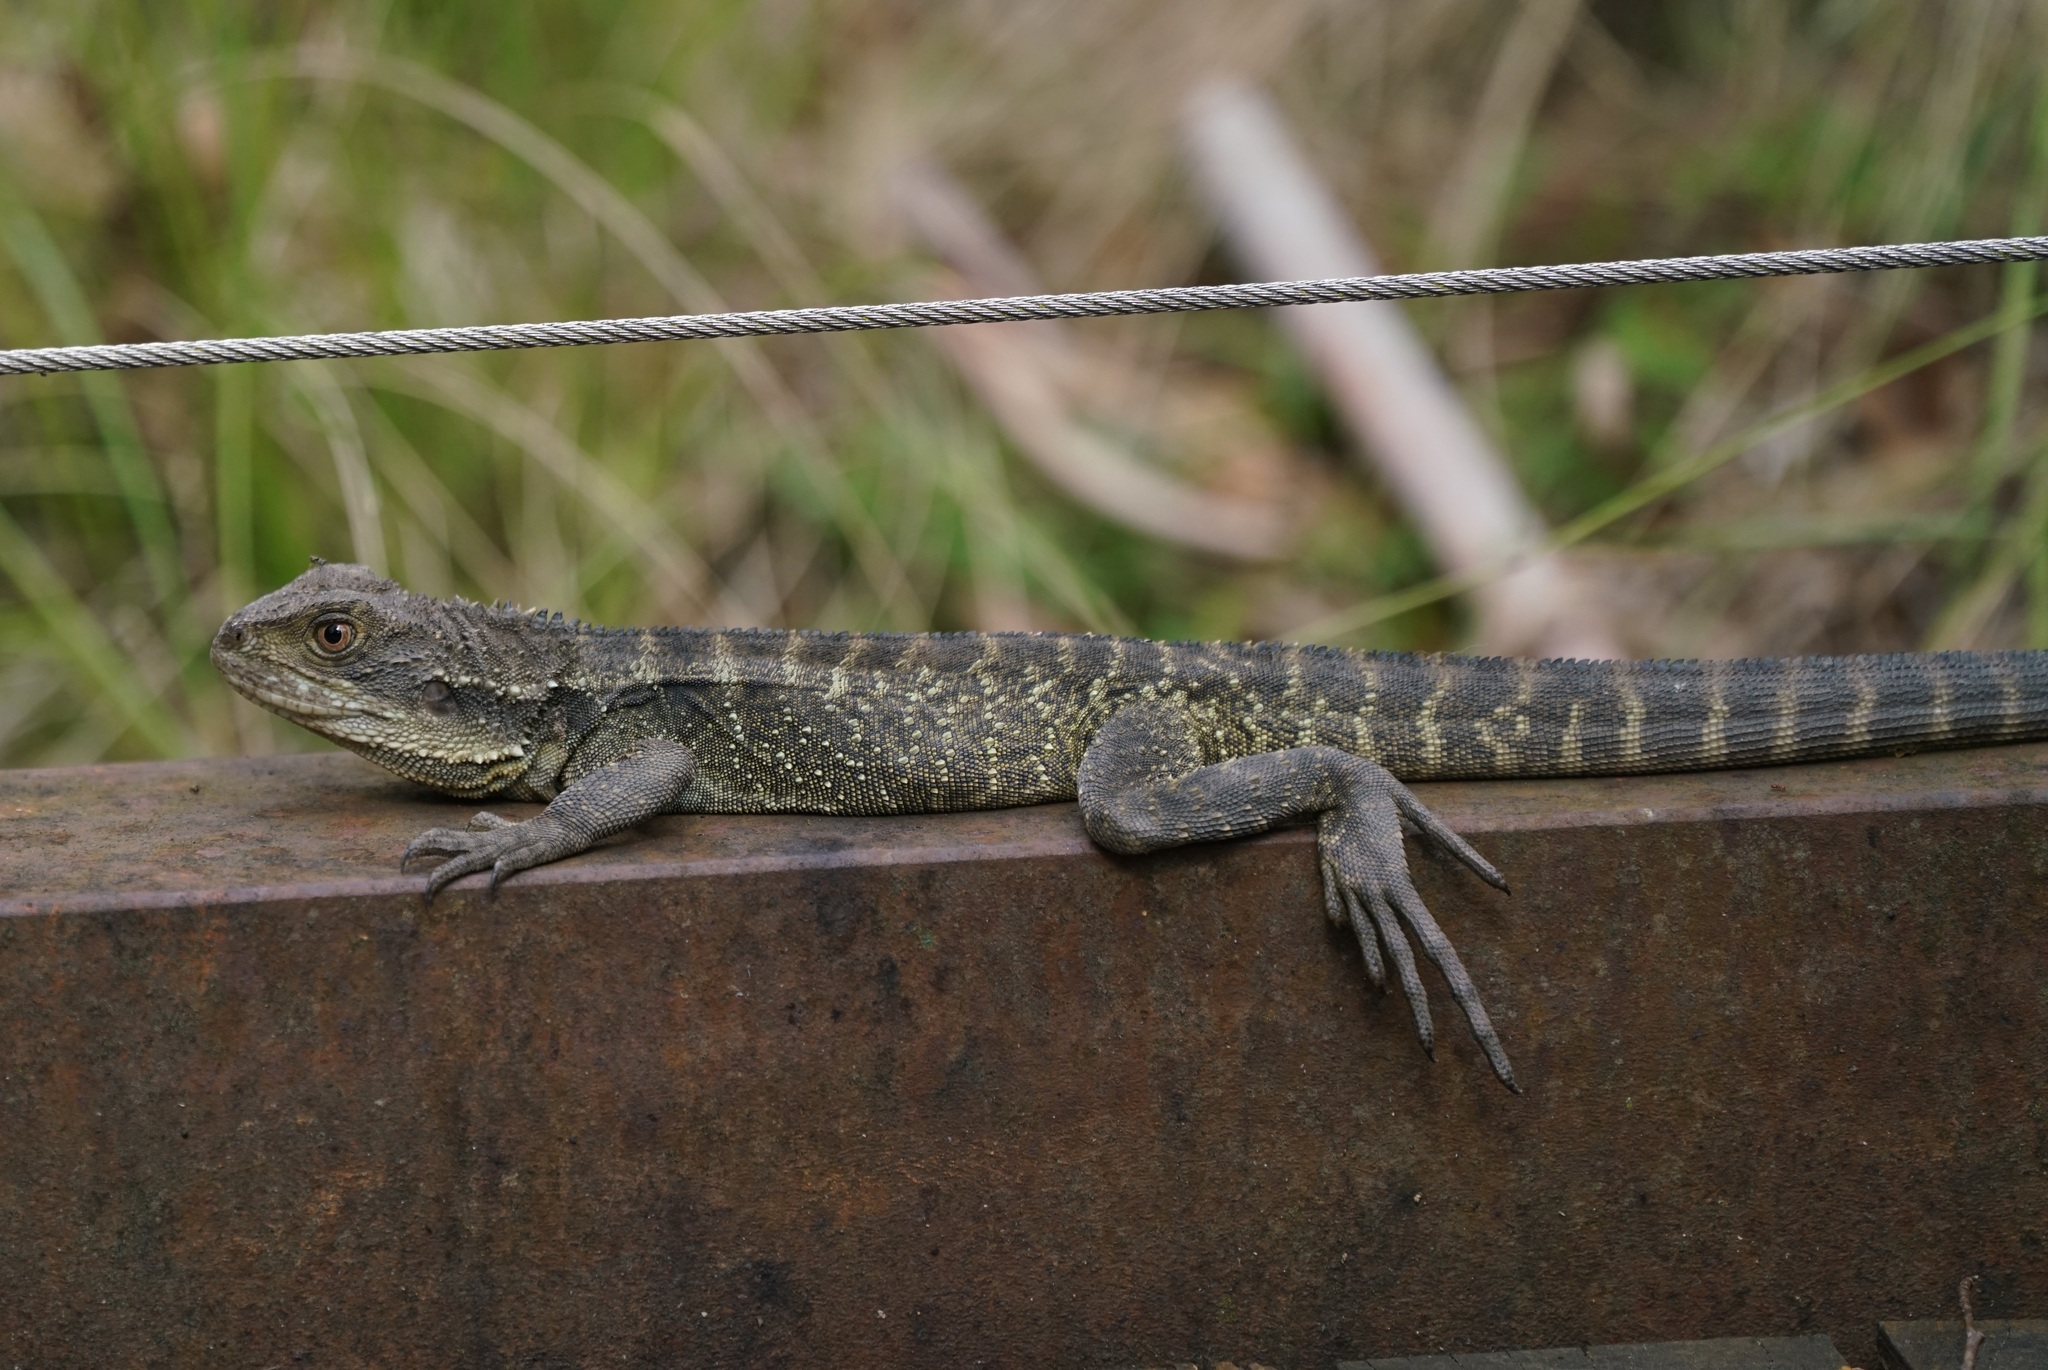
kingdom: Animalia
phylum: Chordata
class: Squamata
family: Agamidae
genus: Intellagama
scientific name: Intellagama lesueurii
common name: Eastern water dragon
